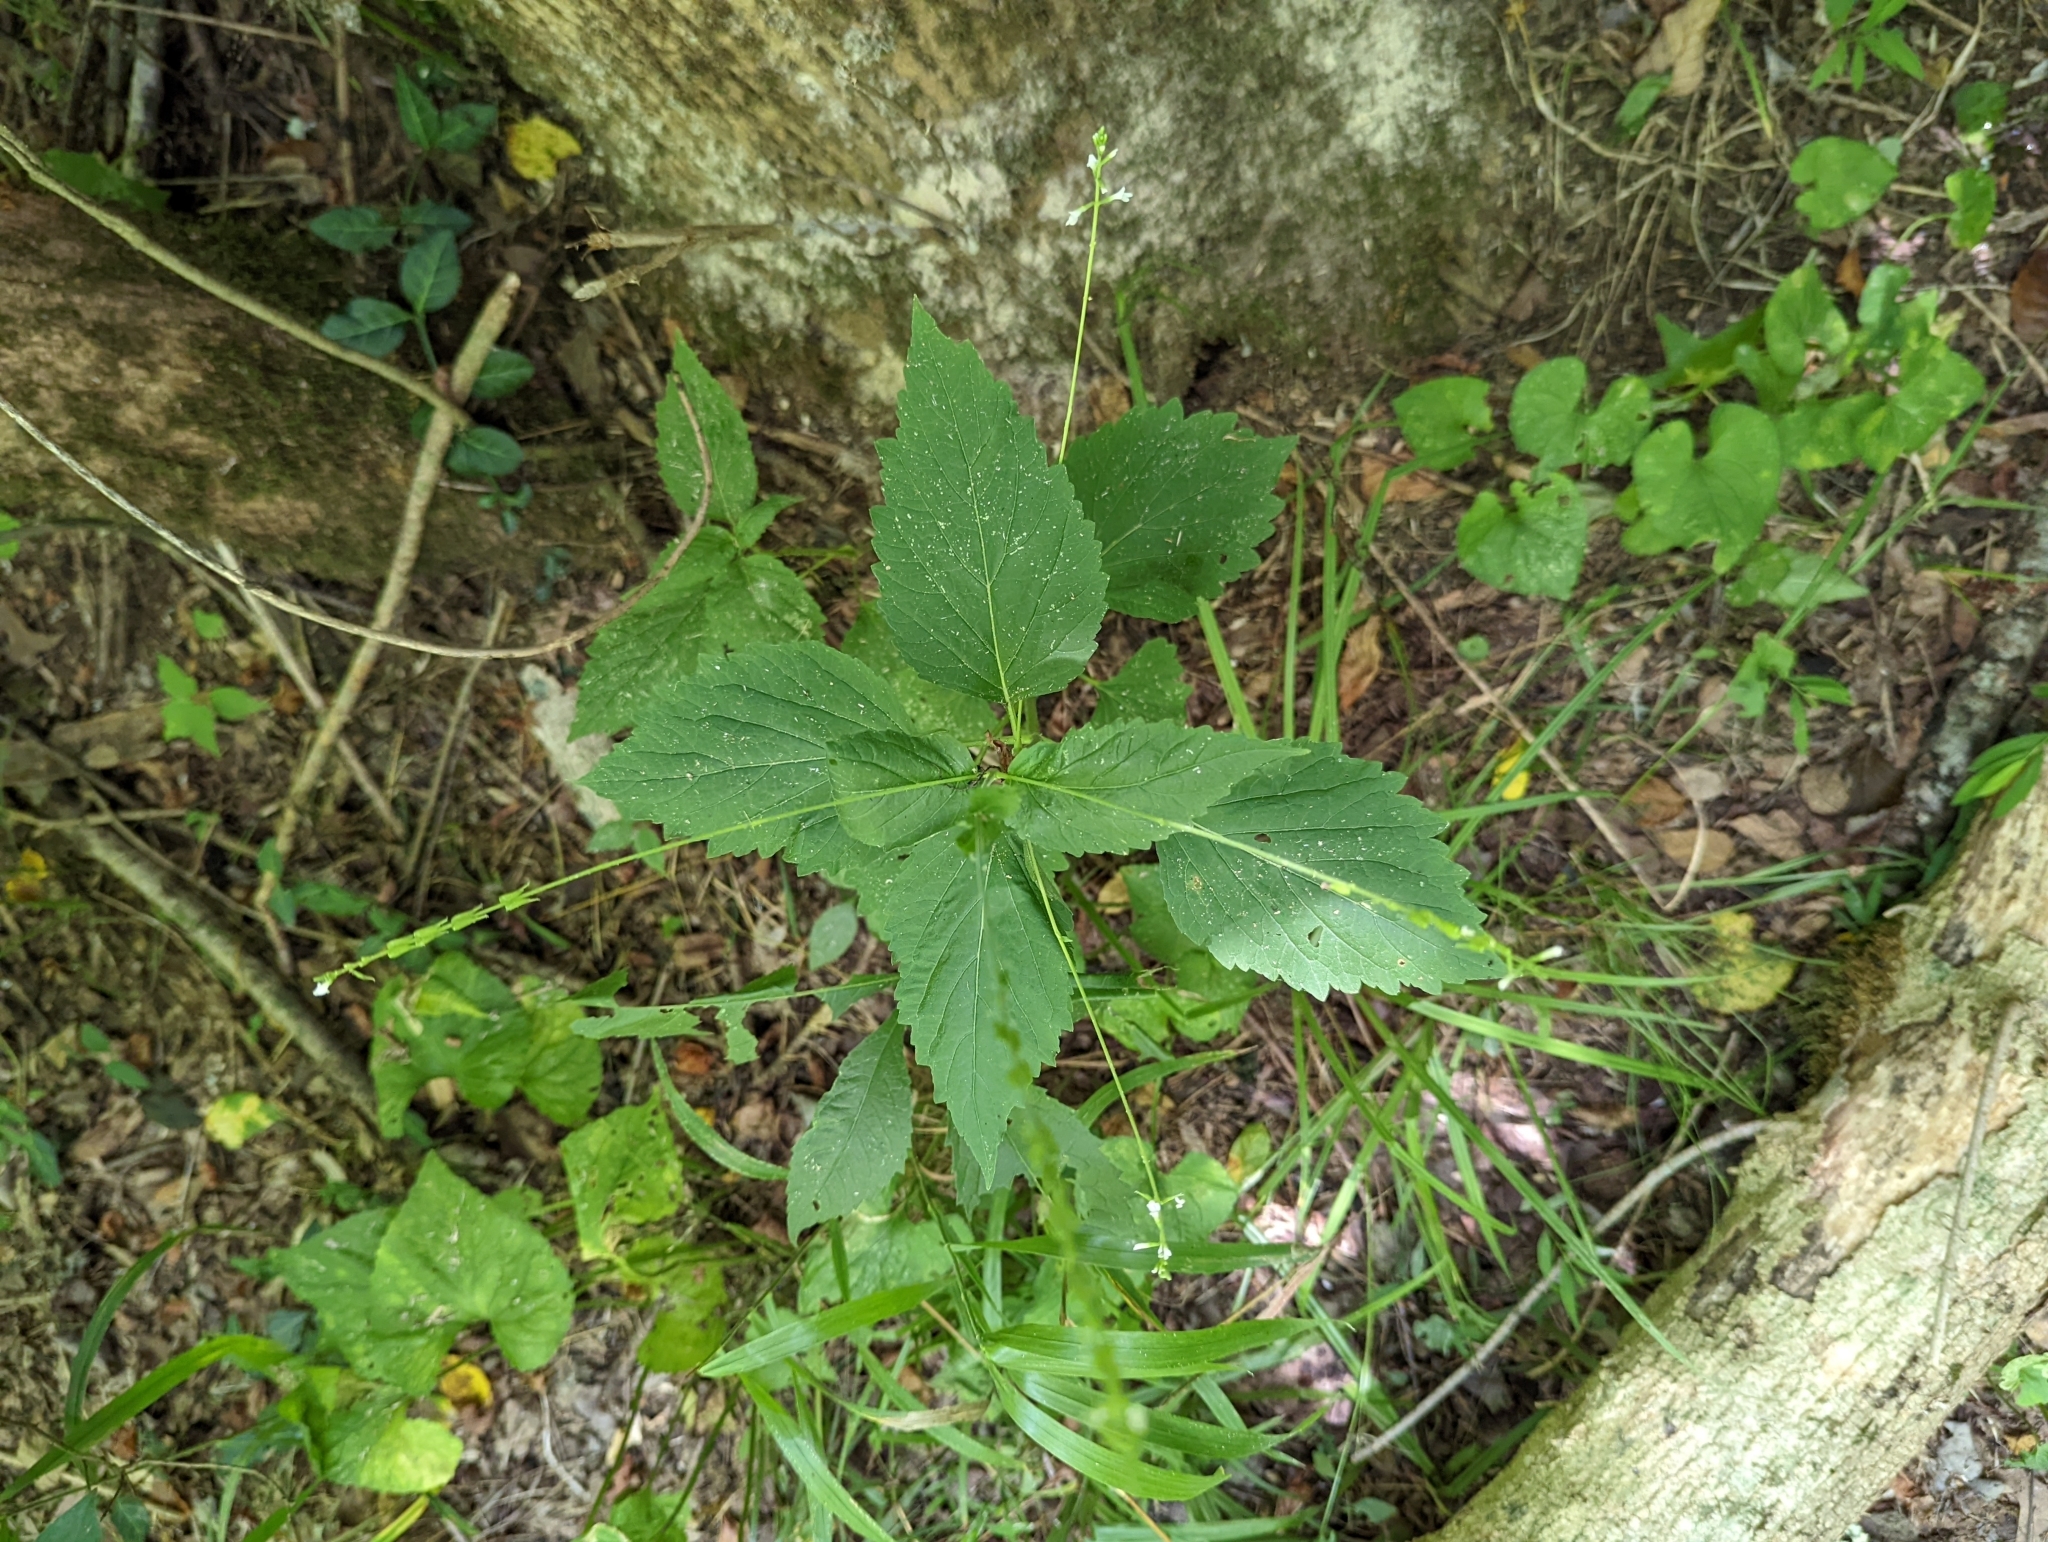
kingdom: Plantae
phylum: Tracheophyta
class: Magnoliopsida
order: Lamiales
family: Phrymaceae
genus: Phryma
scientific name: Phryma leptostachya
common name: American lopseed
